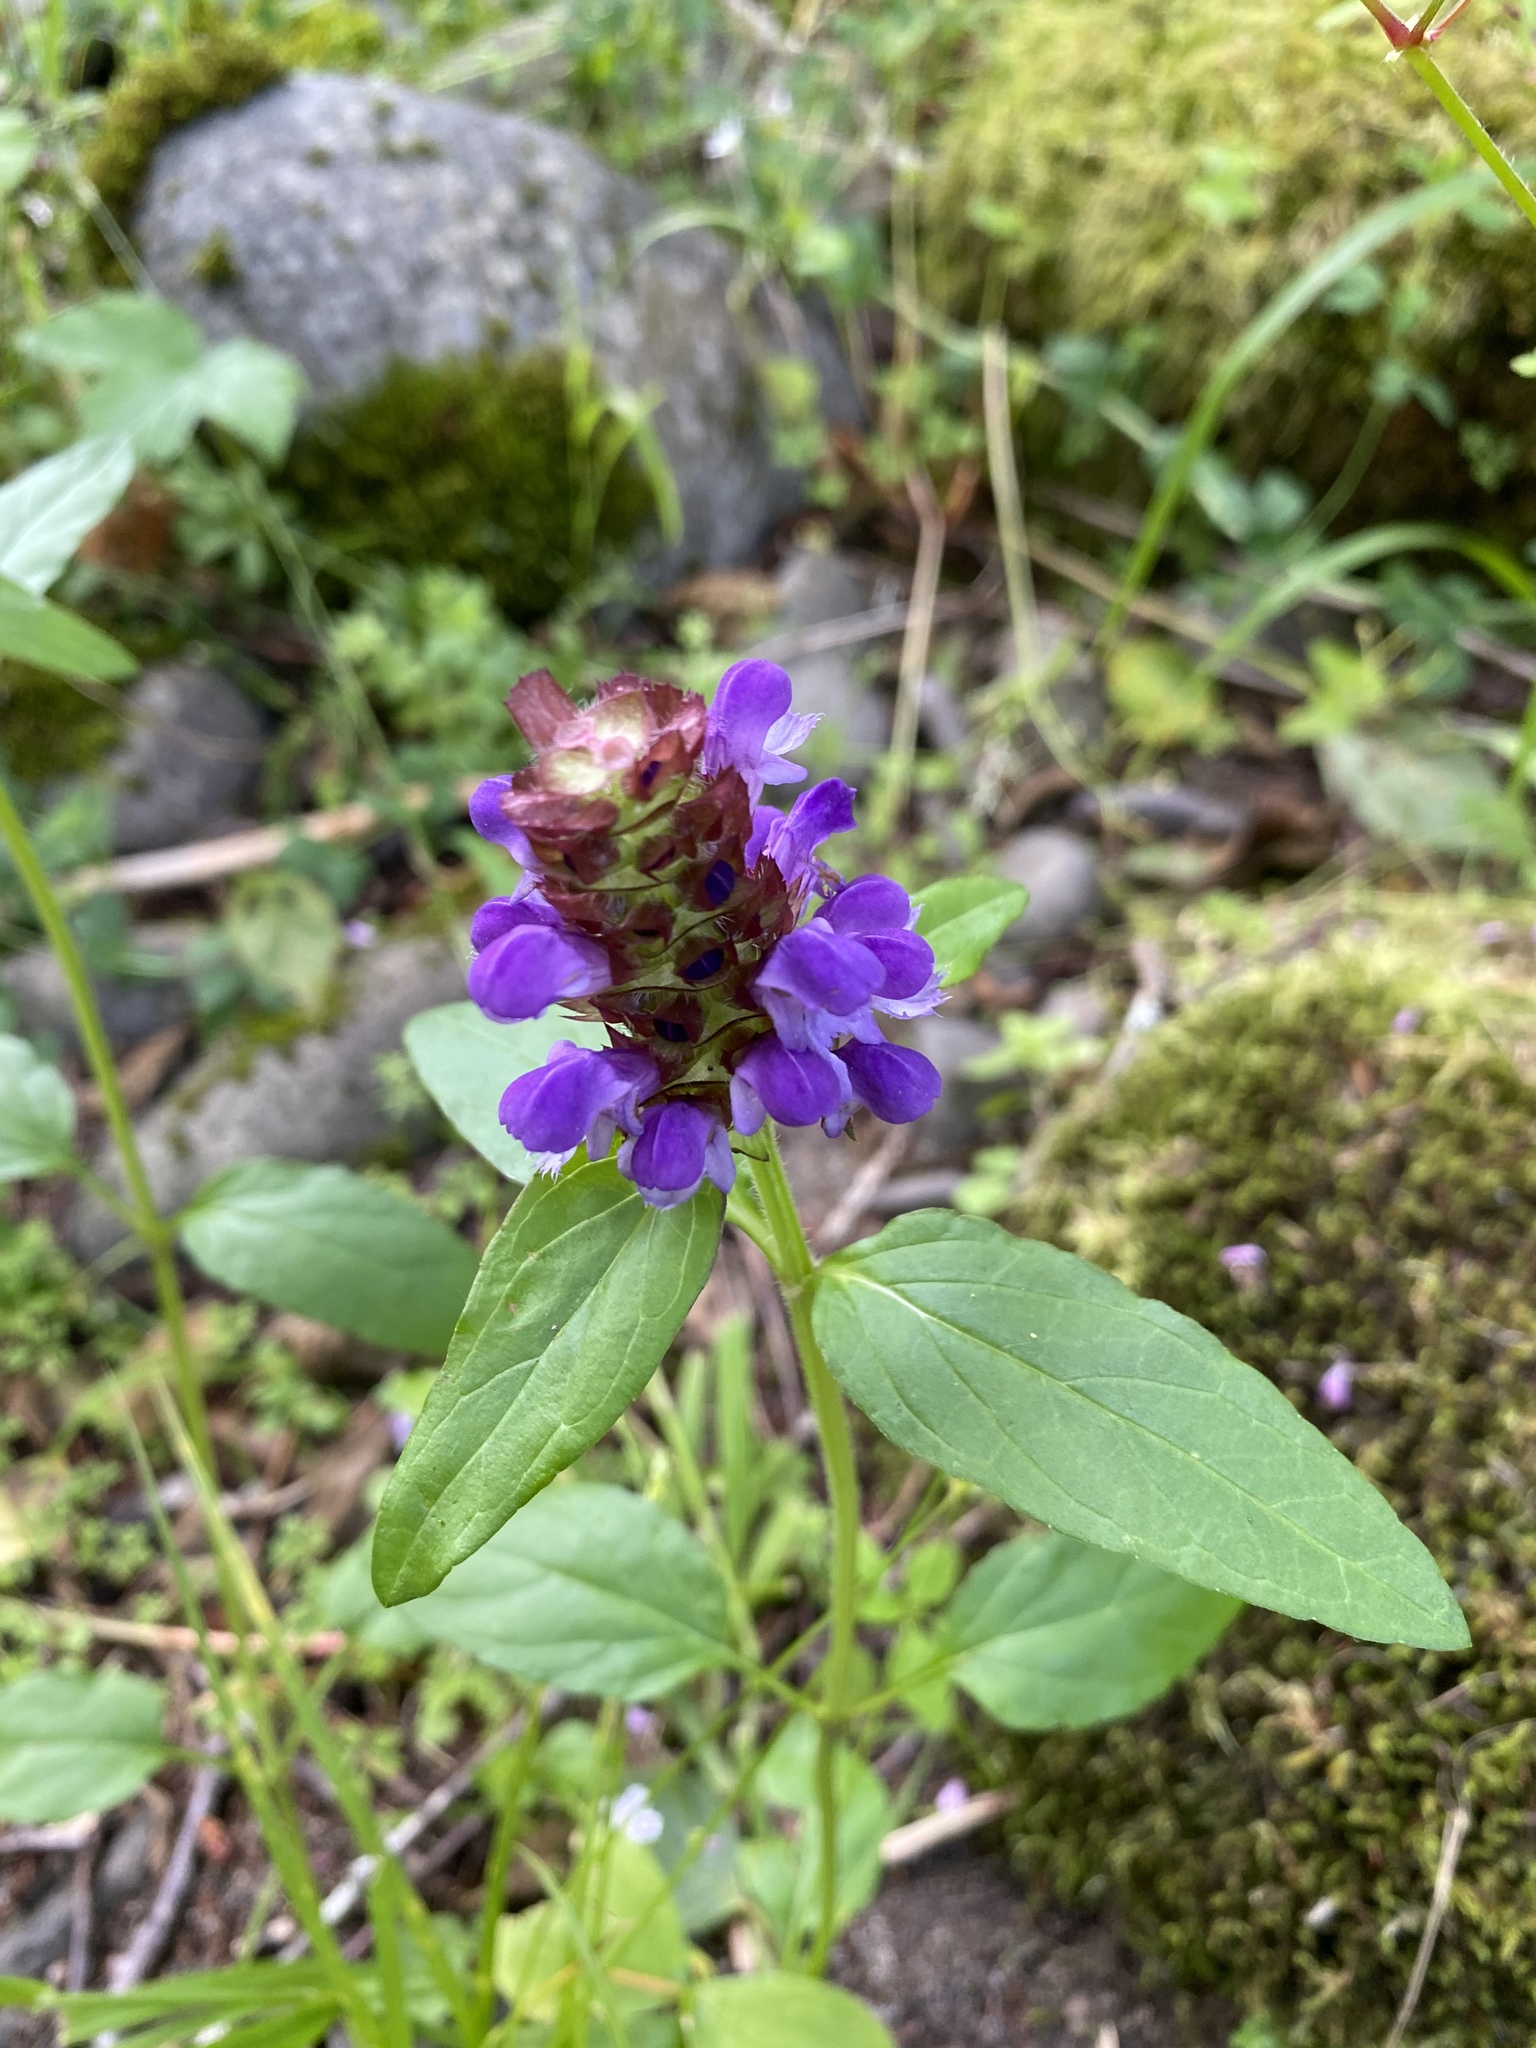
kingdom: Plantae
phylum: Tracheophyta
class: Magnoliopsida
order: Lamiales
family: Lamiaceae
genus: Prunella
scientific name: Prunella vulgaris
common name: Heal-all
